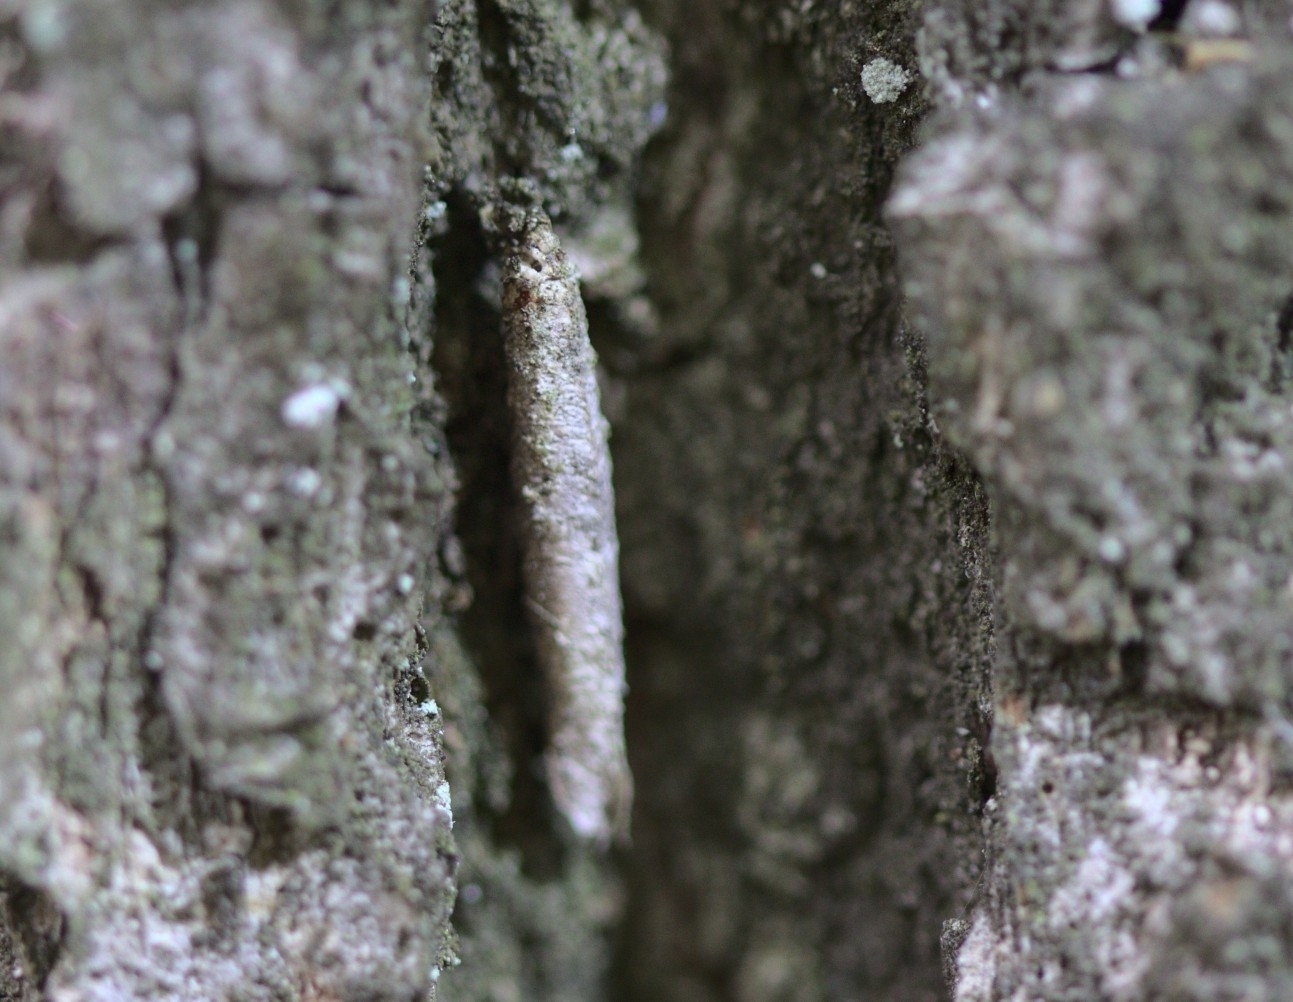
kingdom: Animalia
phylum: Arthropoda
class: Insecta
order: Lepidoptera
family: Psychidae
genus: Taleporia
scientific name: Taleporia tubulosa
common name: Brown smoke
